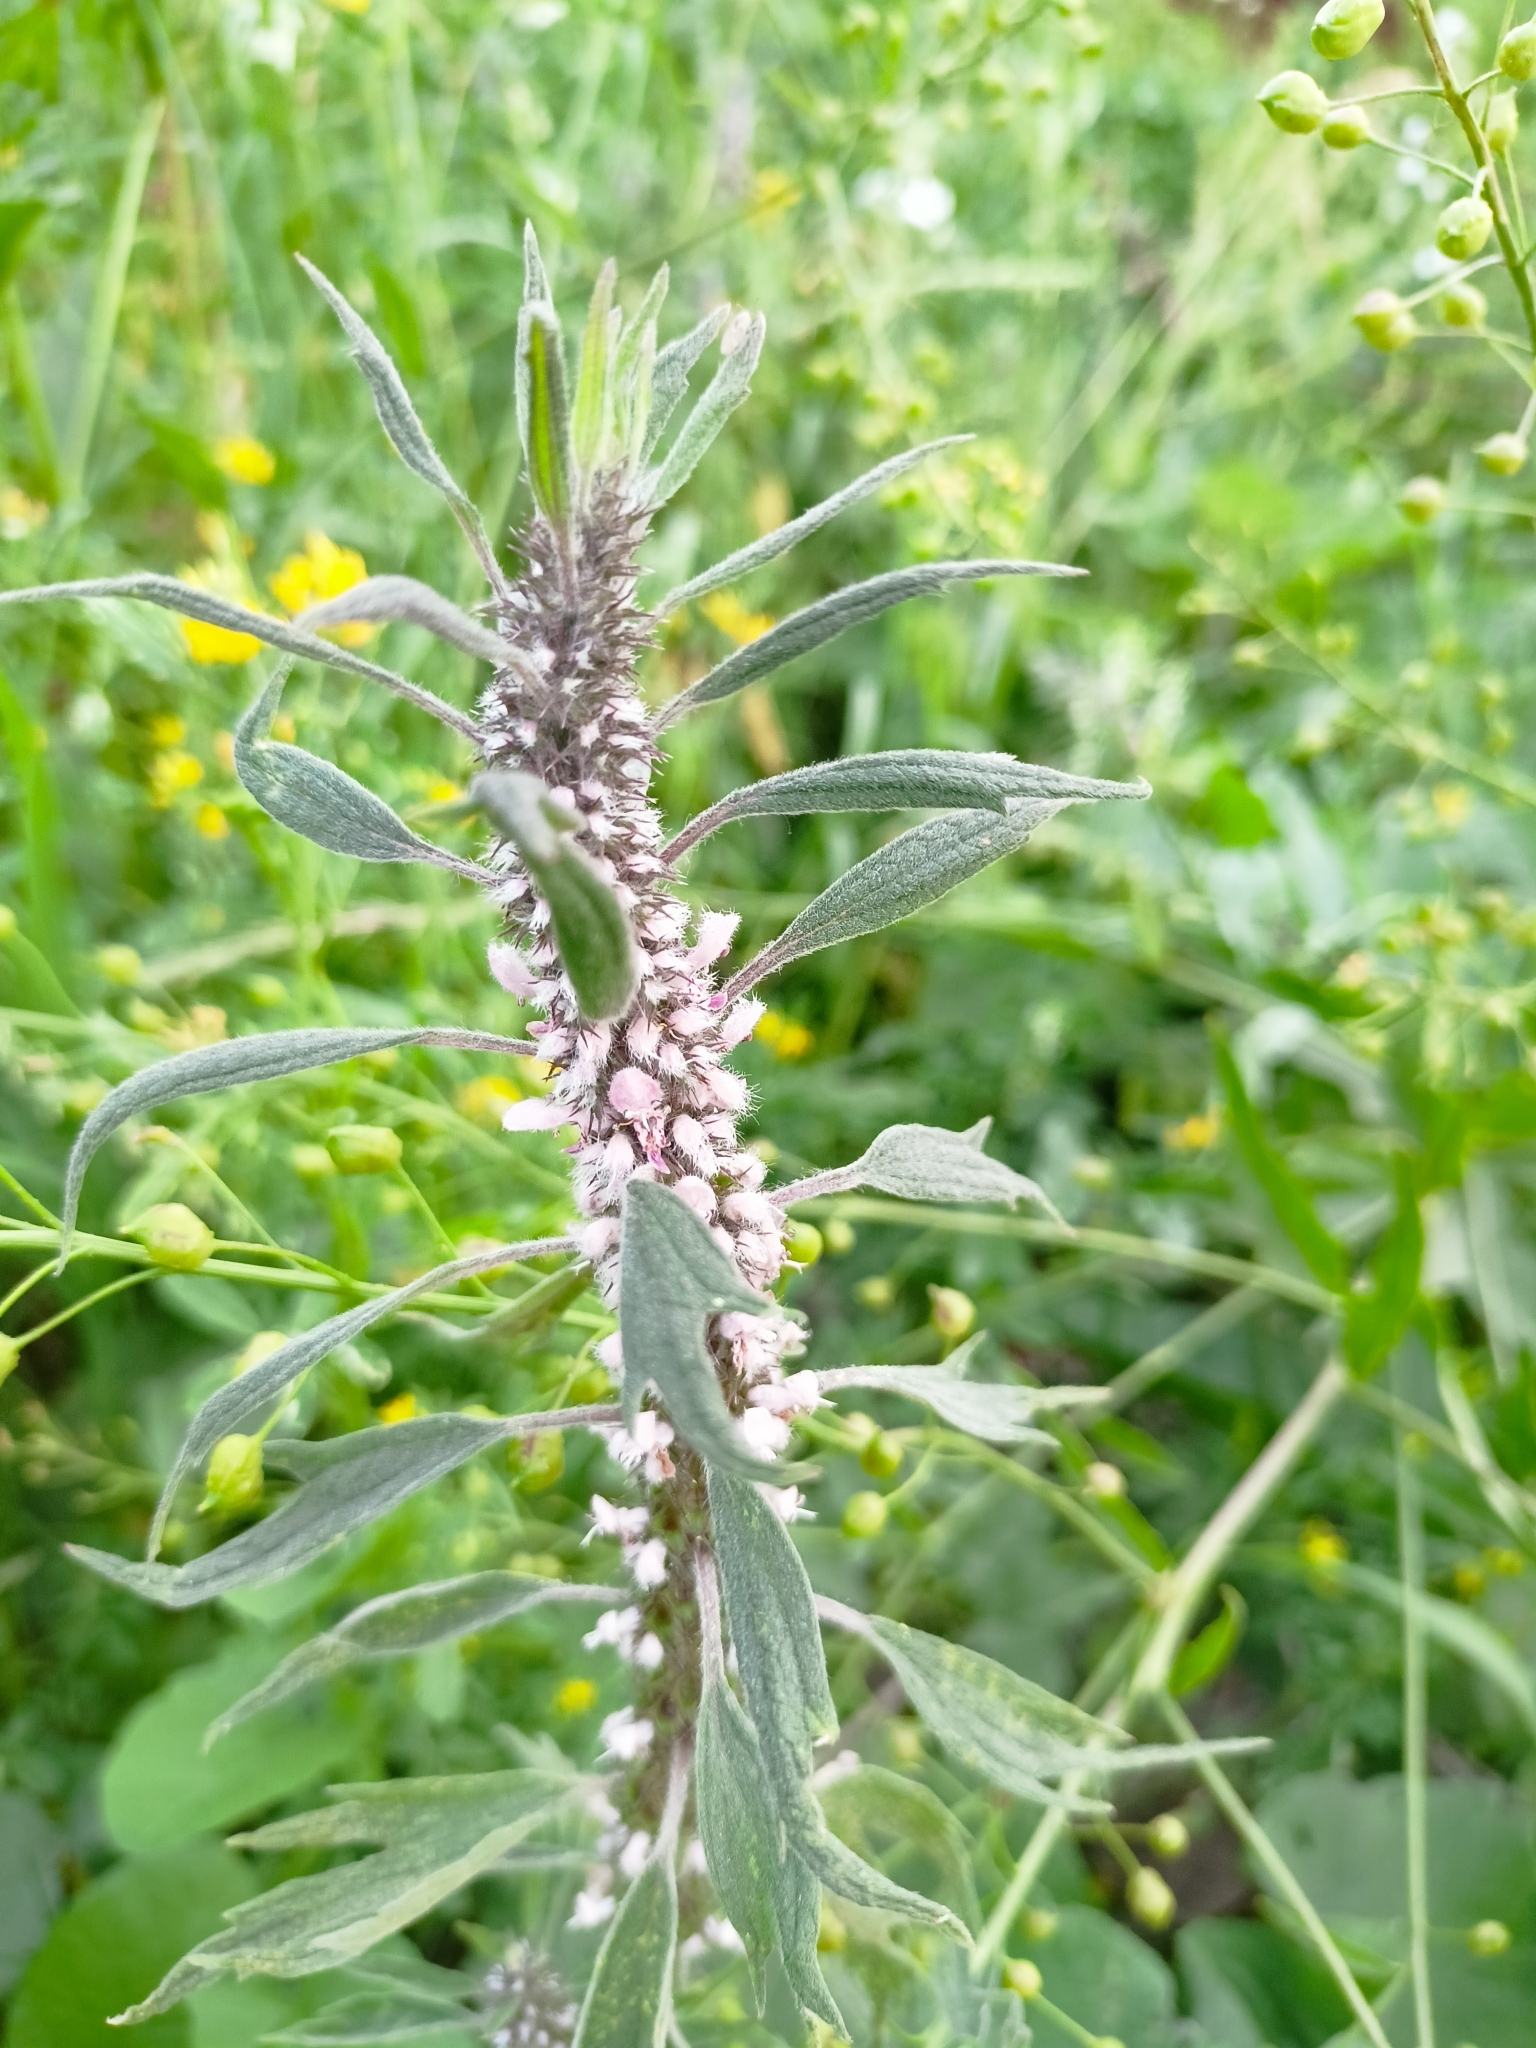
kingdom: Plantae
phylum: Tracheophyta
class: Magnoliopsida
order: Lamiales
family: Lamiaceae
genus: Leonurus
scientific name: Leonurus quinquelobatus
